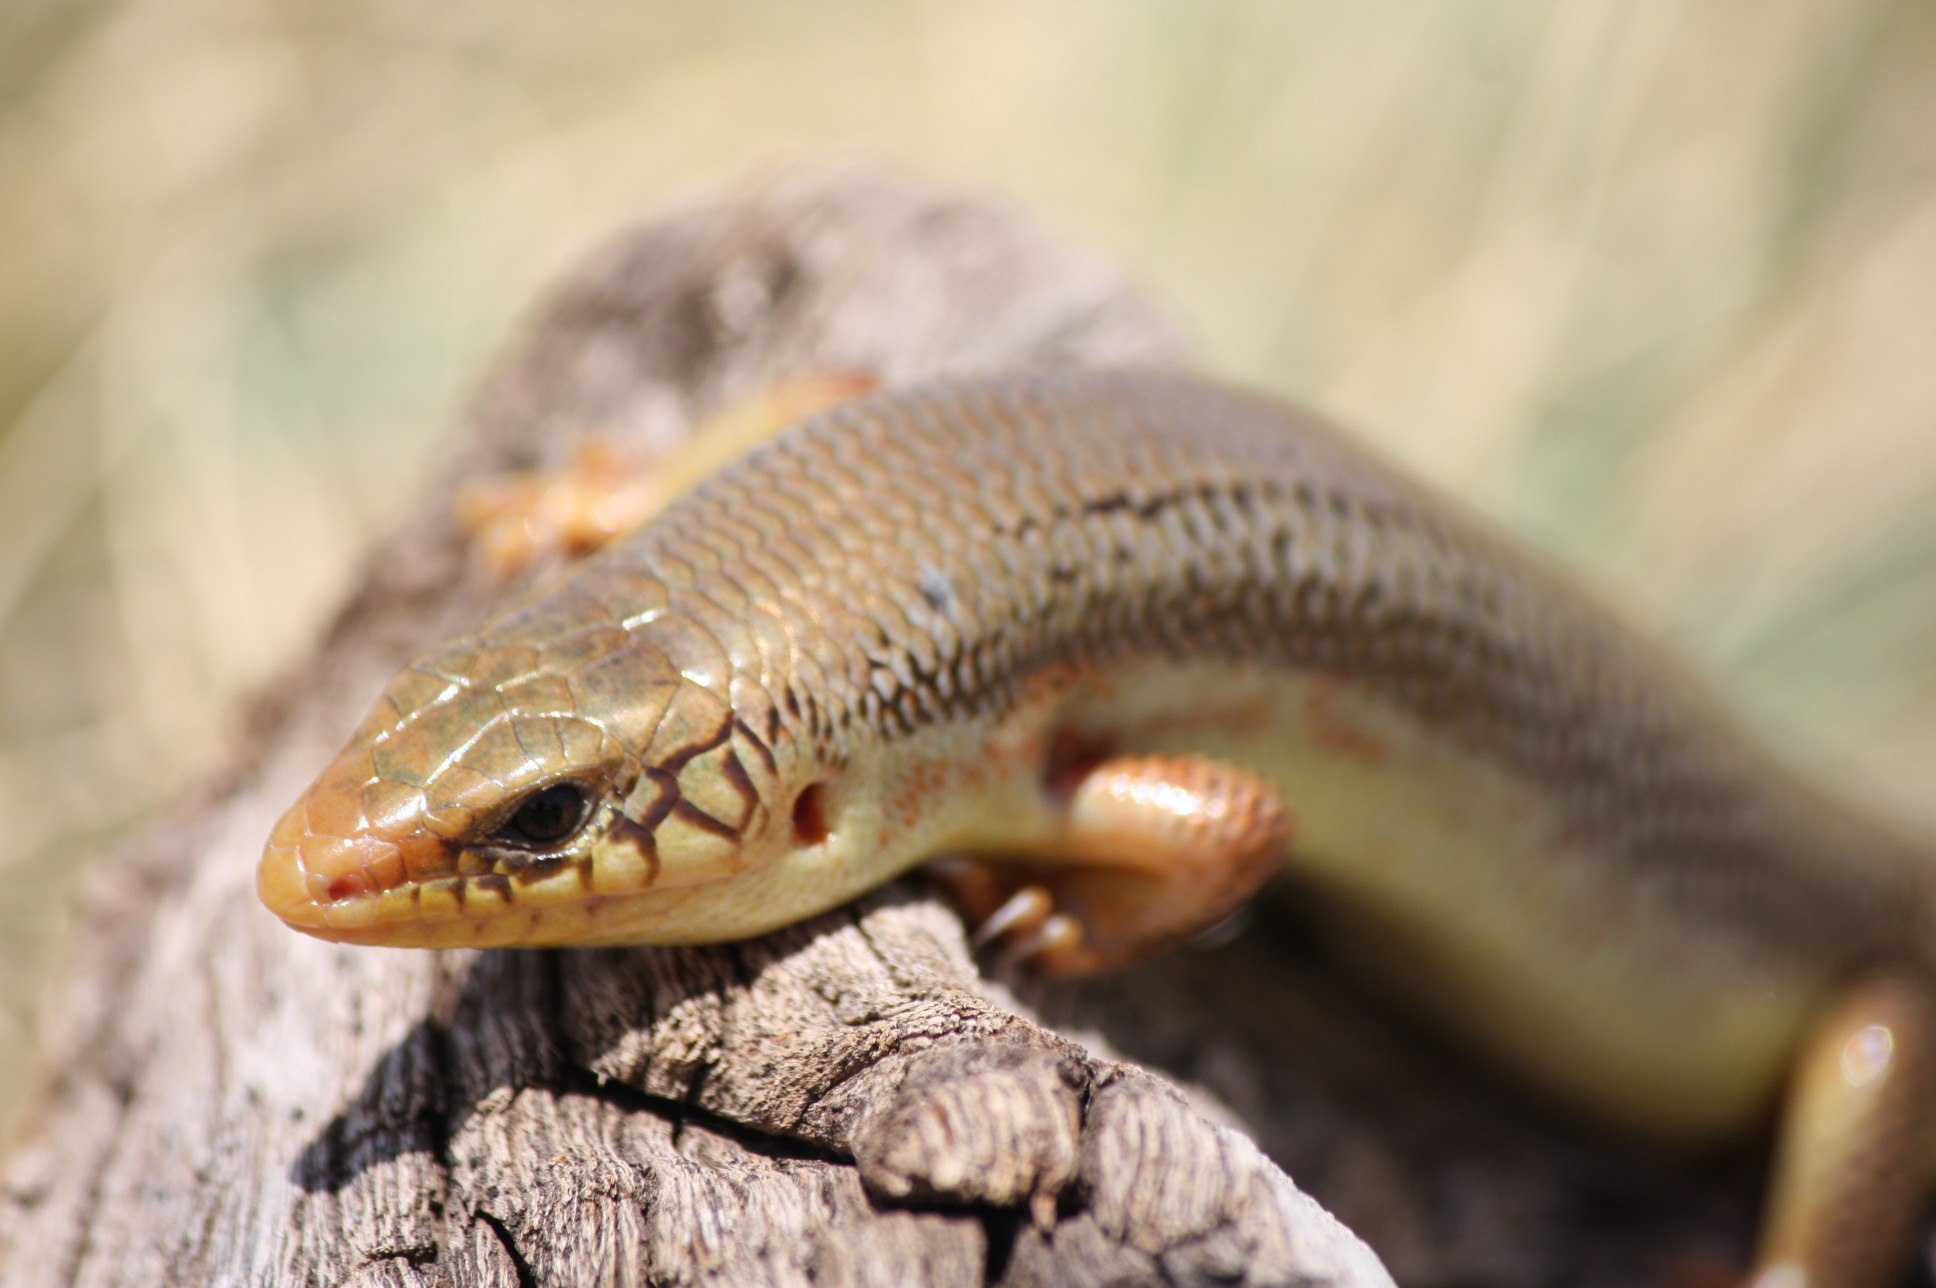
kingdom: Animalia
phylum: Chordata
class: Squamata
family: Scincidae
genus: Plestiodon
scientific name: Plestiodon obsoletus
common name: Great plains skink
